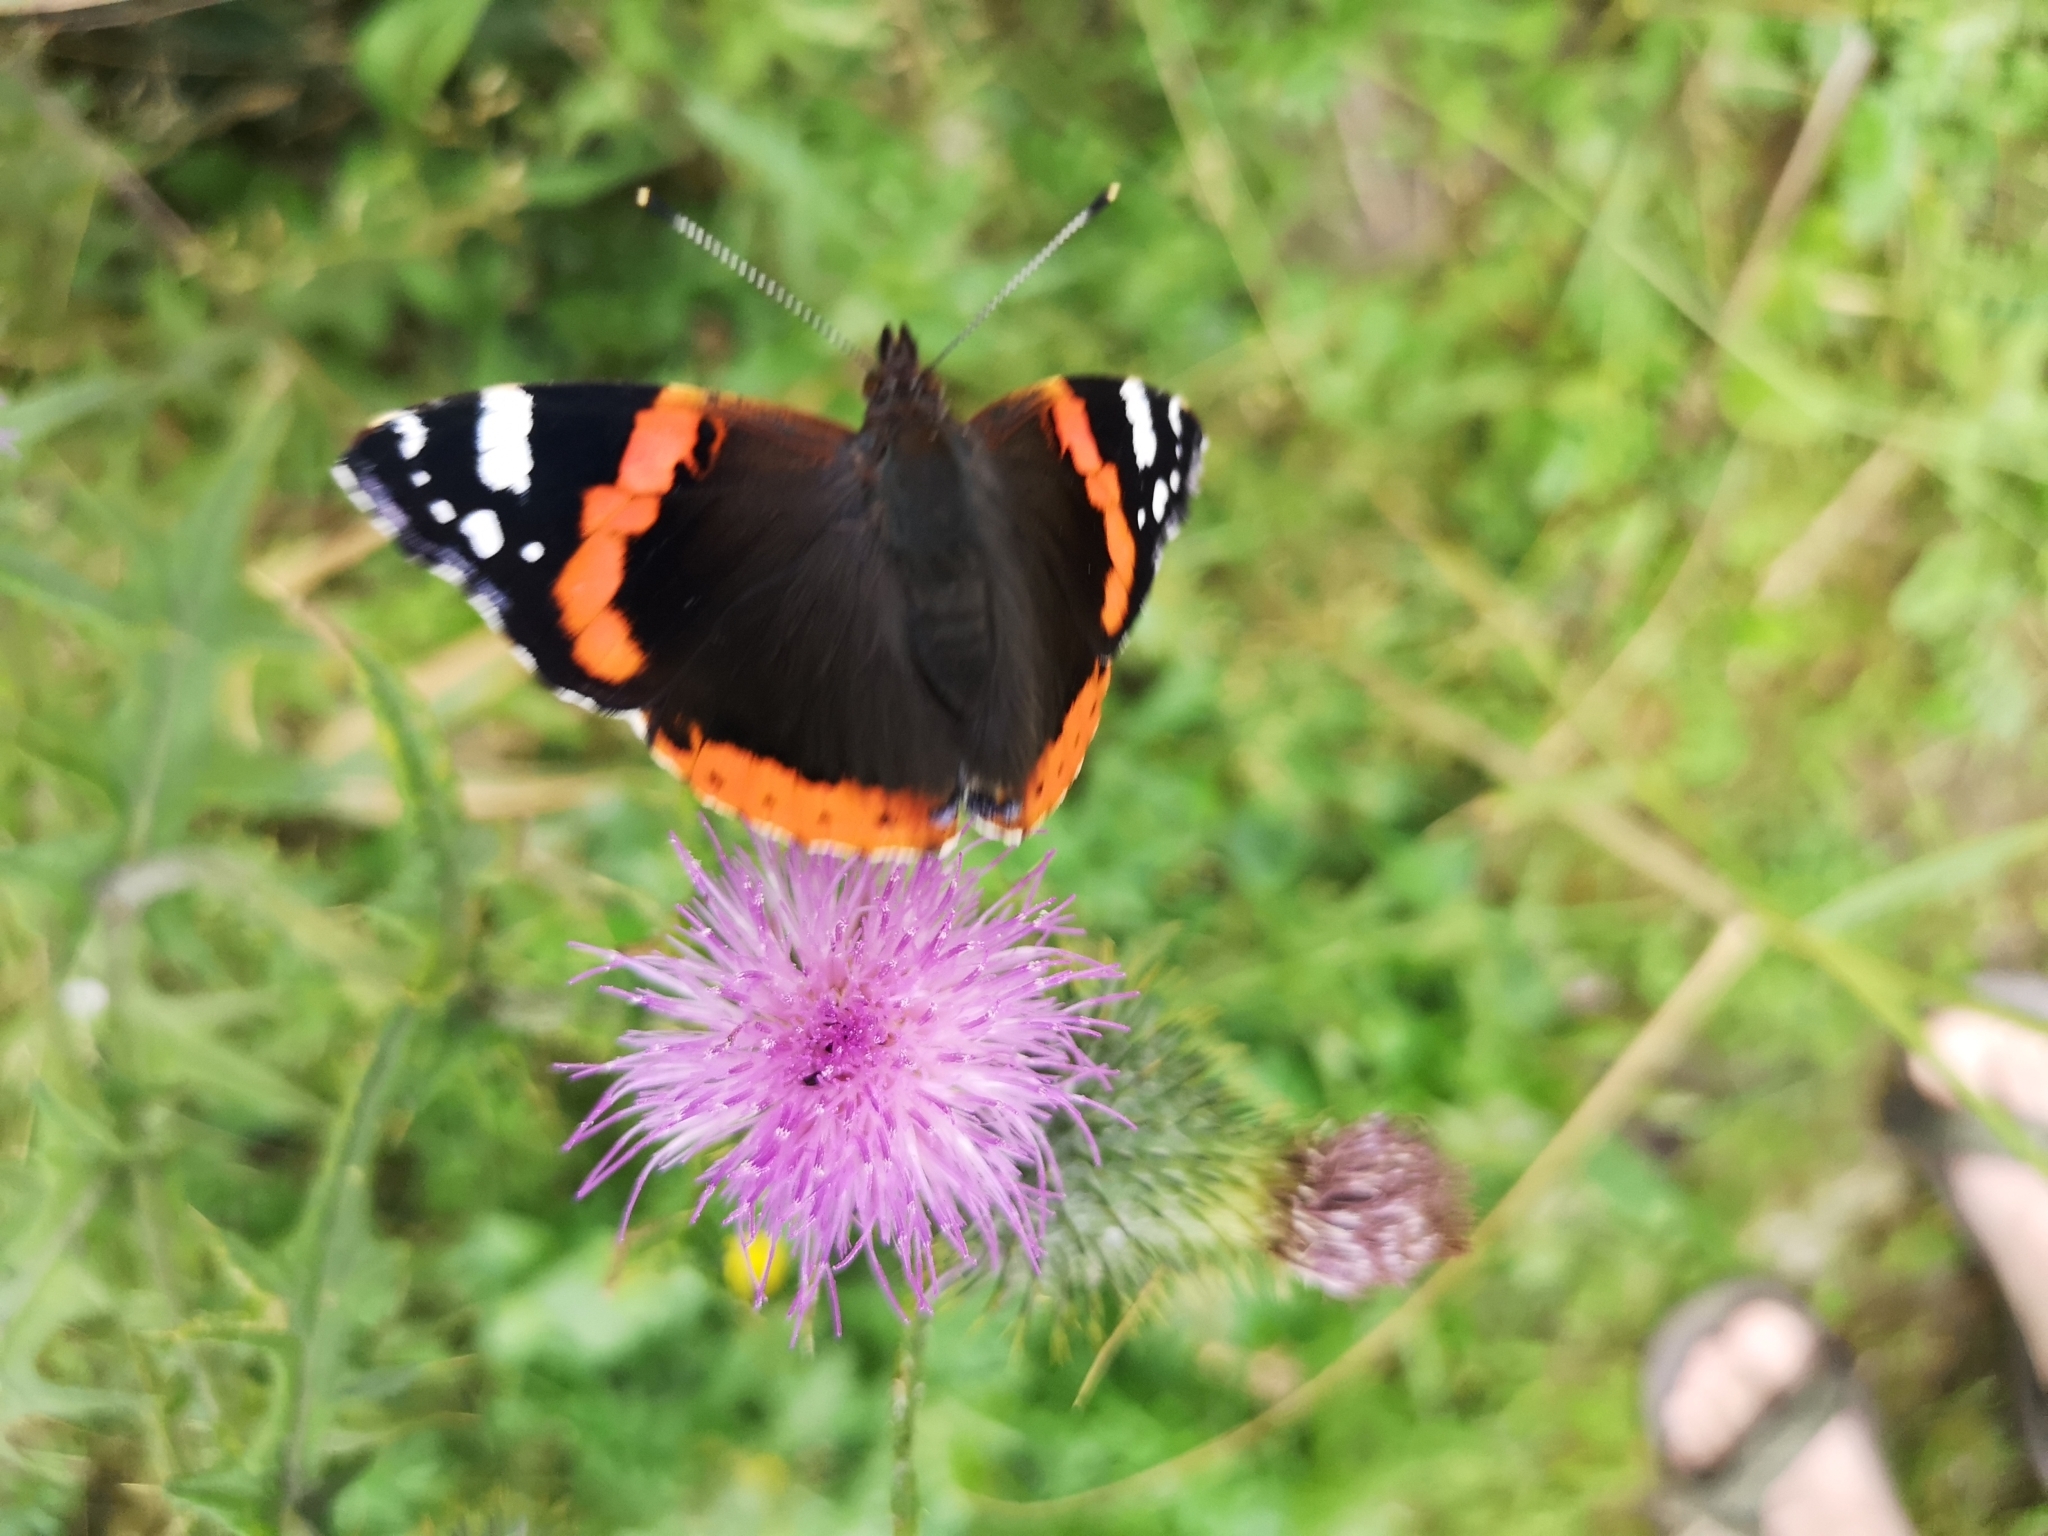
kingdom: Animalia
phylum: Arthropoda
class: Insecta
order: Lepidoptera
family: Nymphalidae
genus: Vanessa
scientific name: Vanessa atalanta
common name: Red admiral
